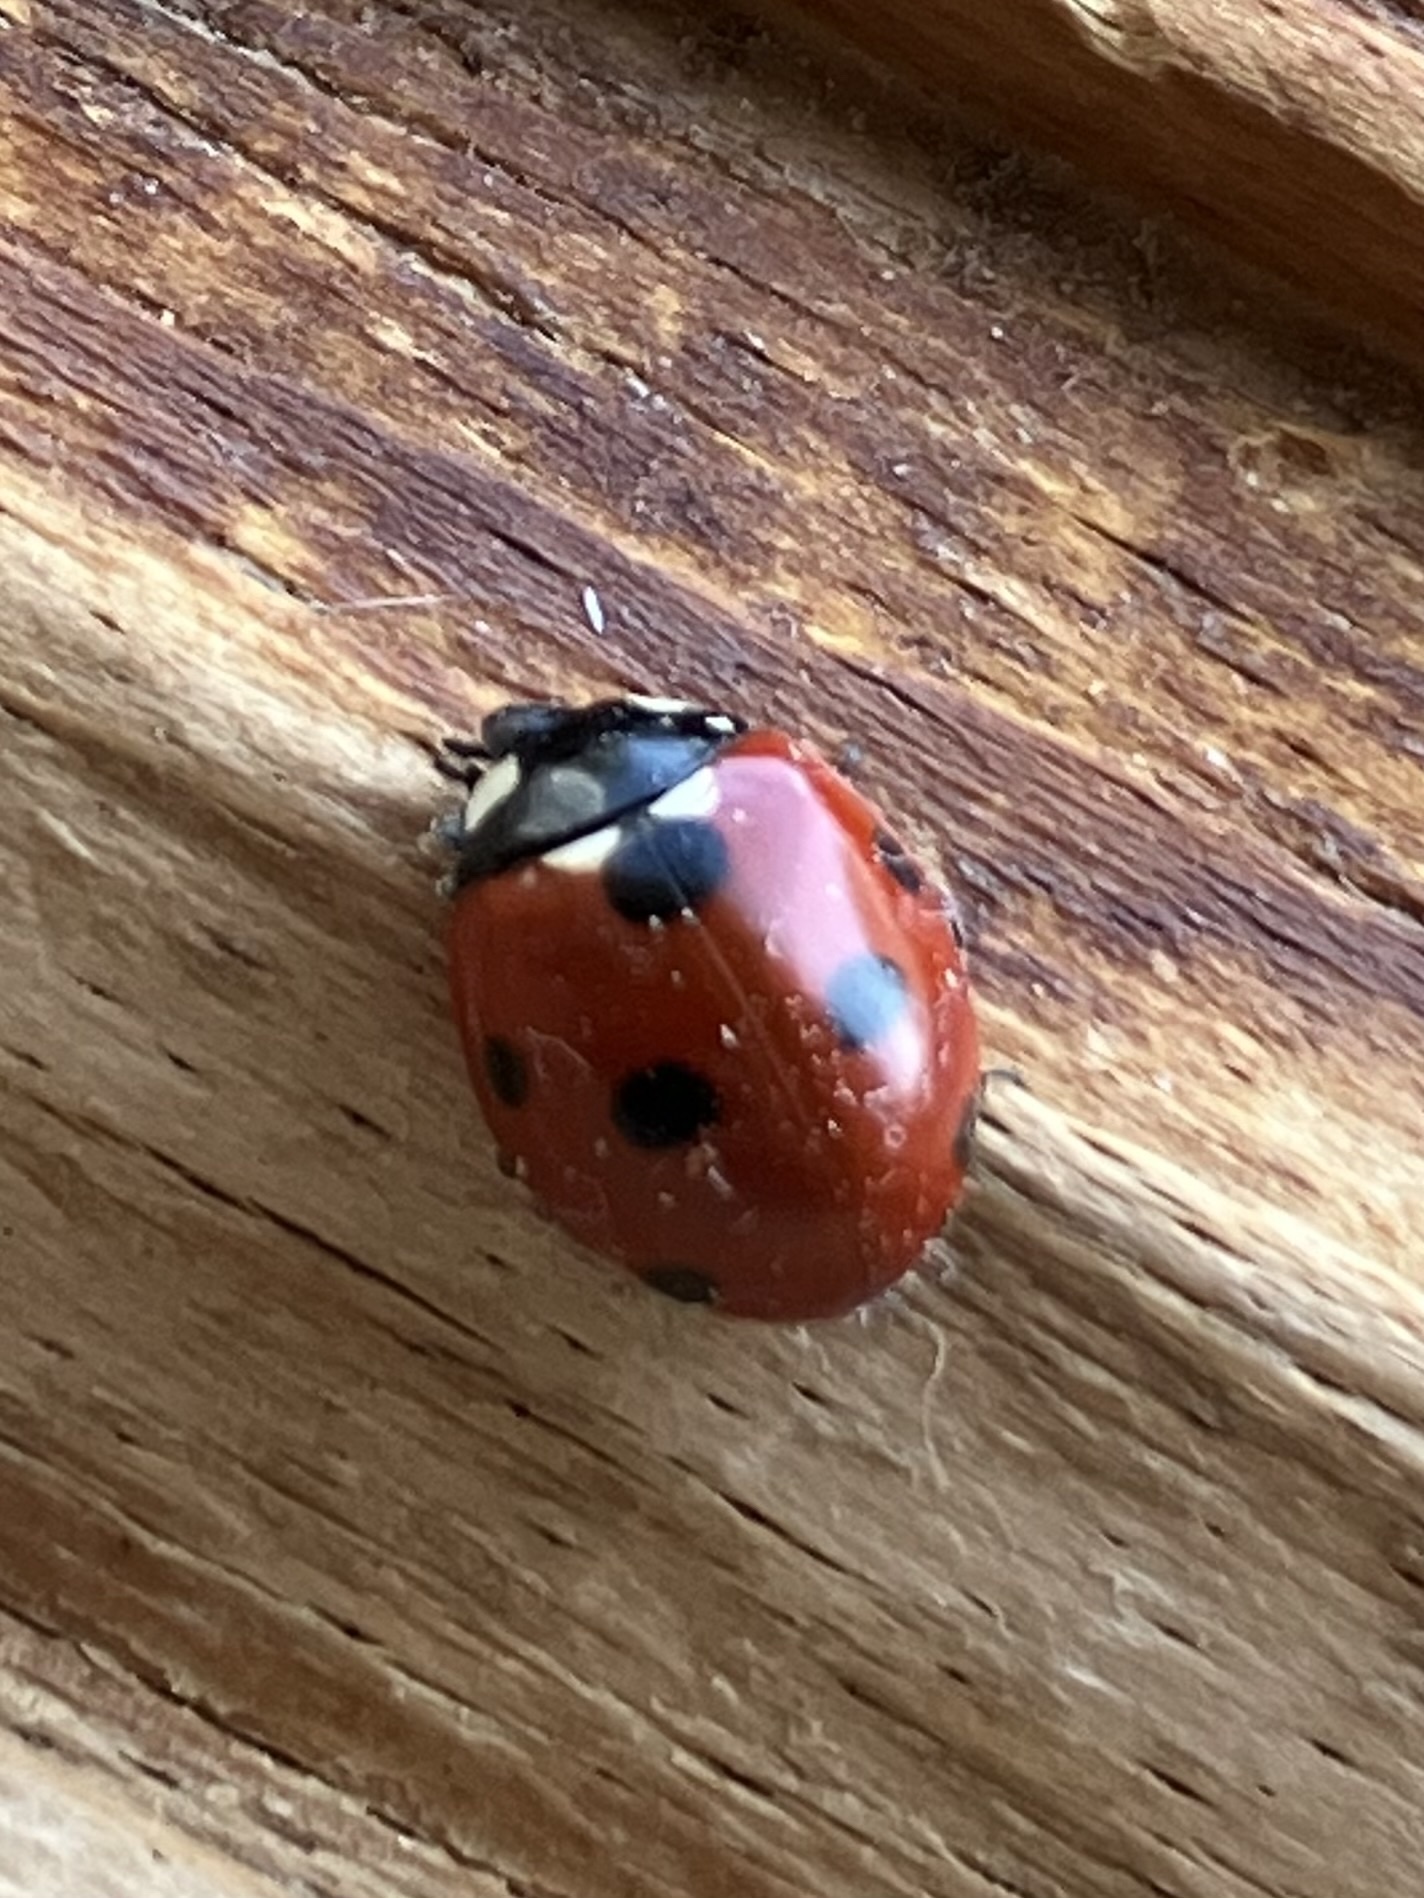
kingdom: Animalia
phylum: Arthropoda
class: Insecta
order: Coleoptera
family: Coccinellidae
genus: Coccinella
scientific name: Coccinella septempunctata
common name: Sevenspotted lady beetle
